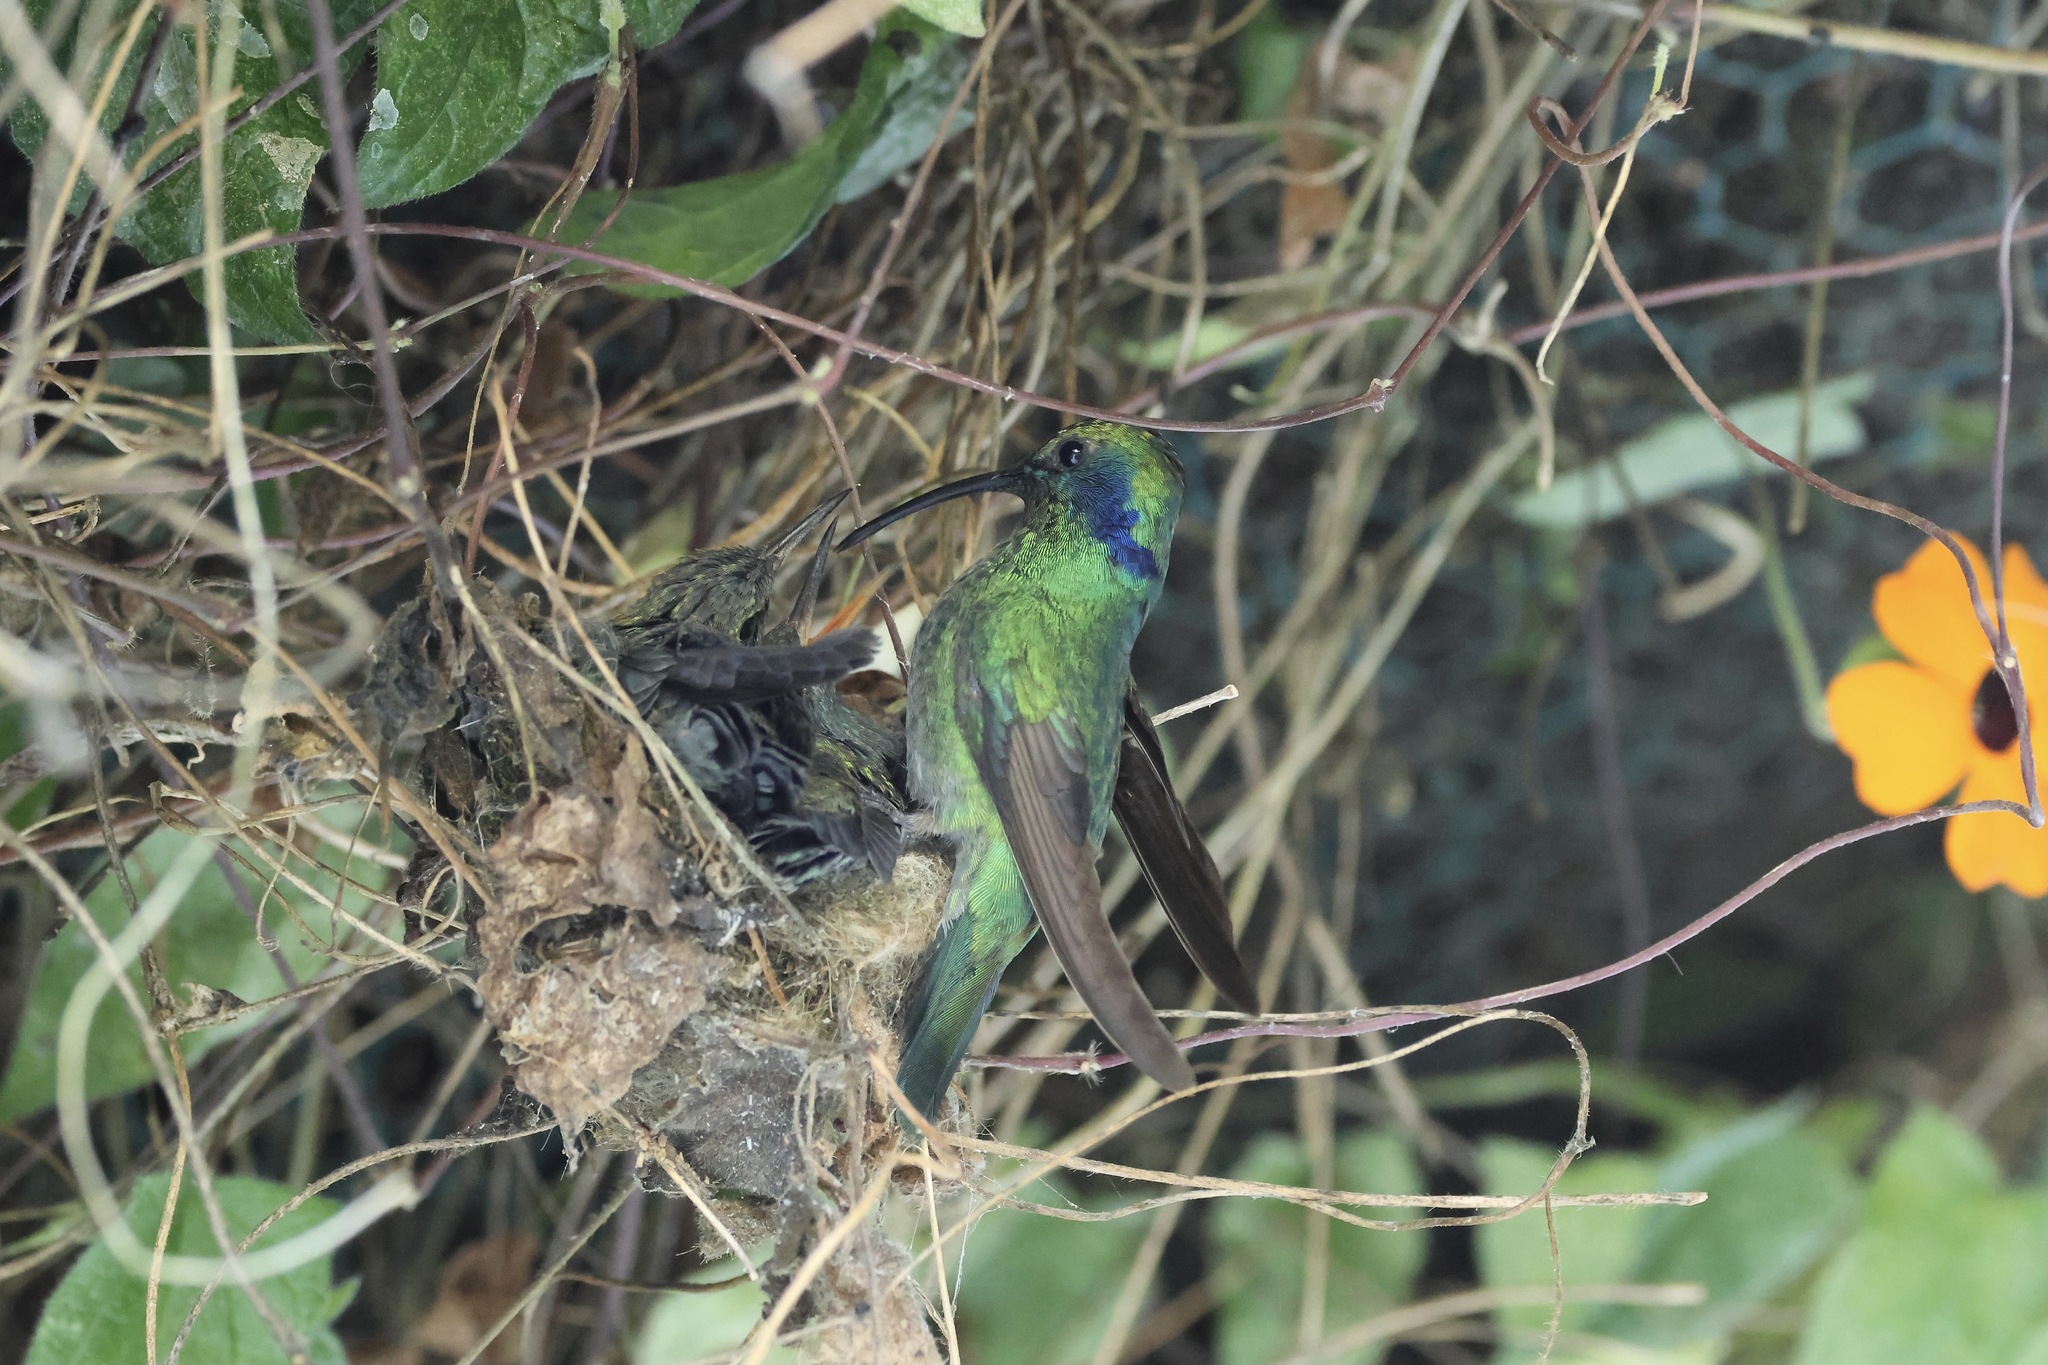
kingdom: Animalia
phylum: Chordata
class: Aves
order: Apodiformes
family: Trochilidae
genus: Colibri
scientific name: Colibri cyanotus
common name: Lesser violetear
